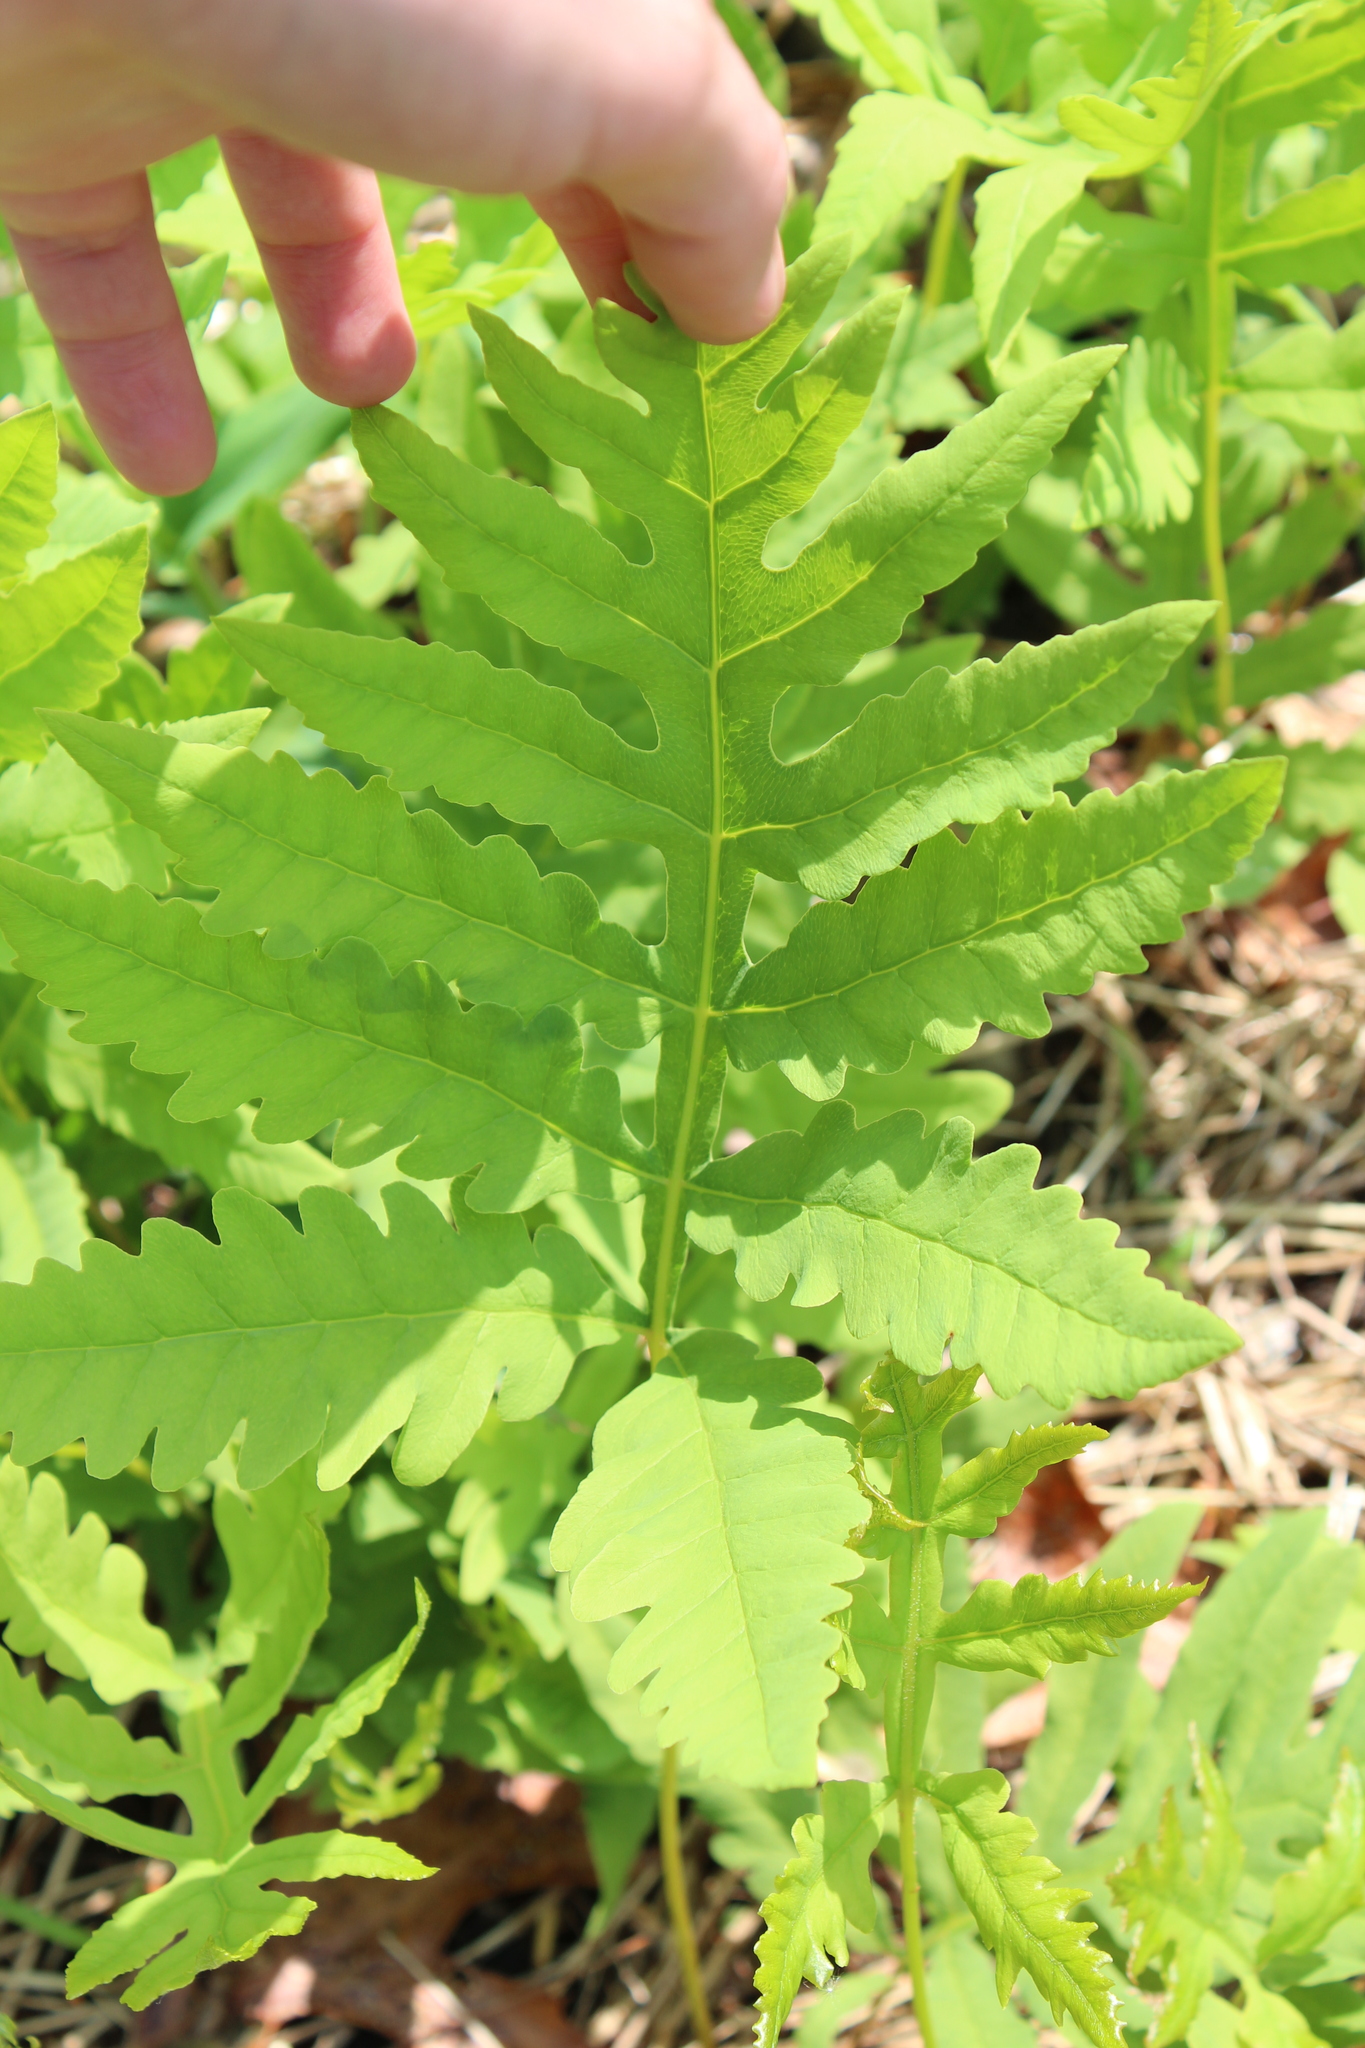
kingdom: Plantae
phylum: Tracheophyta
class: Polypodiopsida
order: Polypodiales
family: Onocleaceae
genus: Onoclea
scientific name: Onoclea sensibilis
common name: Sensitive fern
